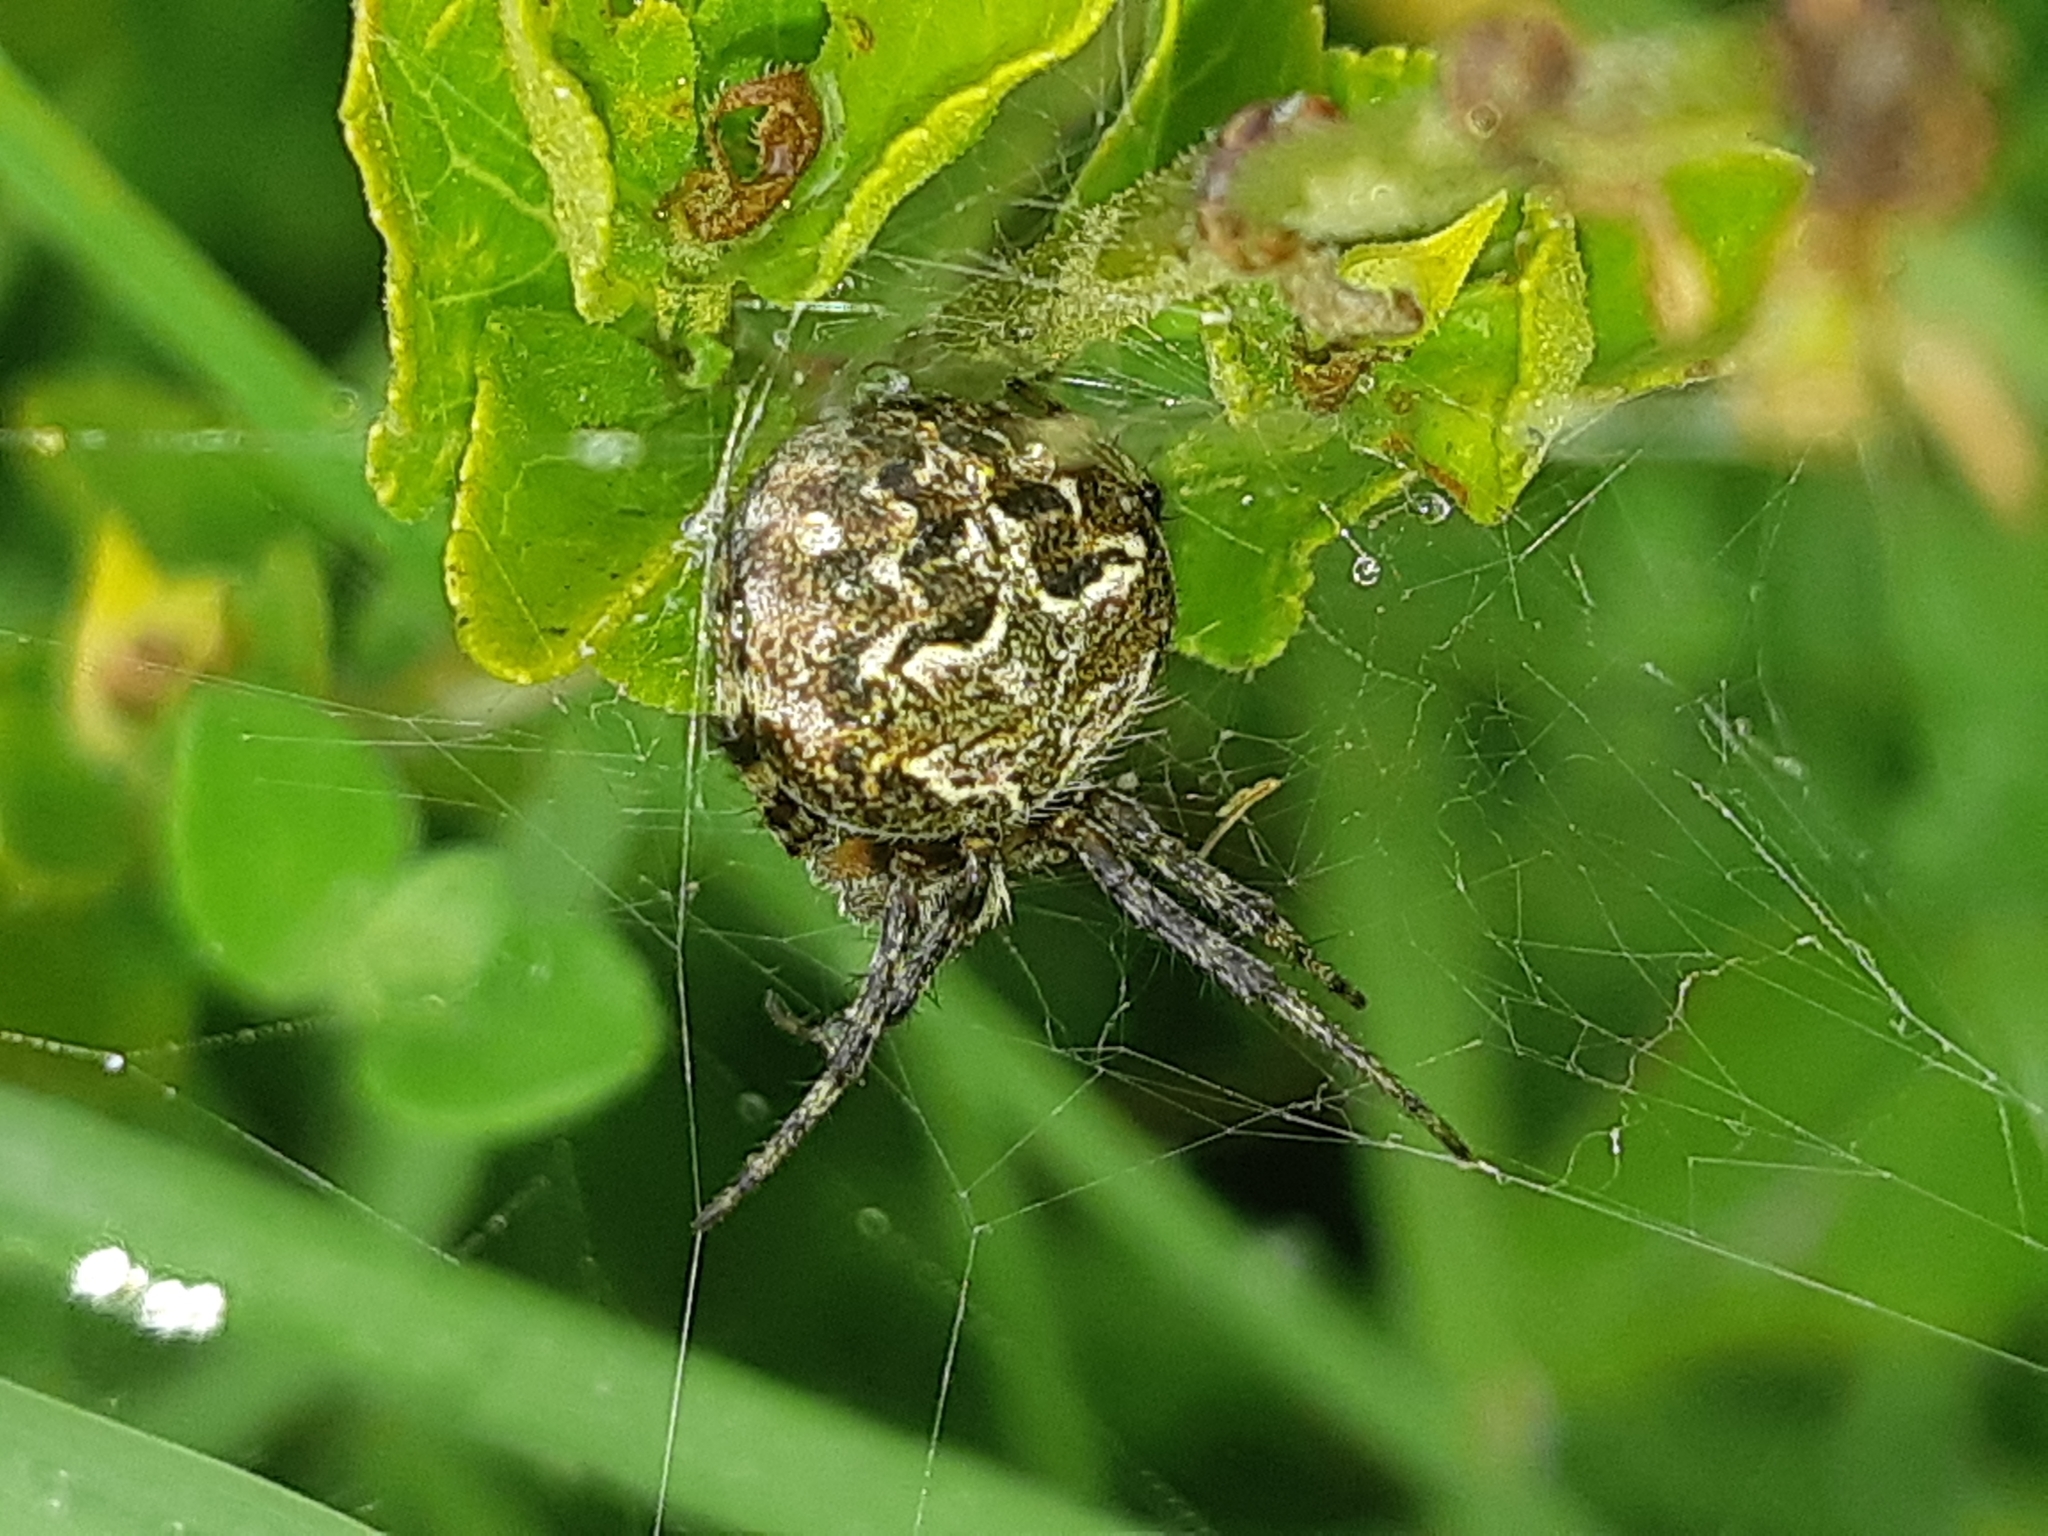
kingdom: Animalia
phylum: Arthropoda
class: Arachnida
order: Araneae
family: Araneidae
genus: Araneus
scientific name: Araneus granadensis
